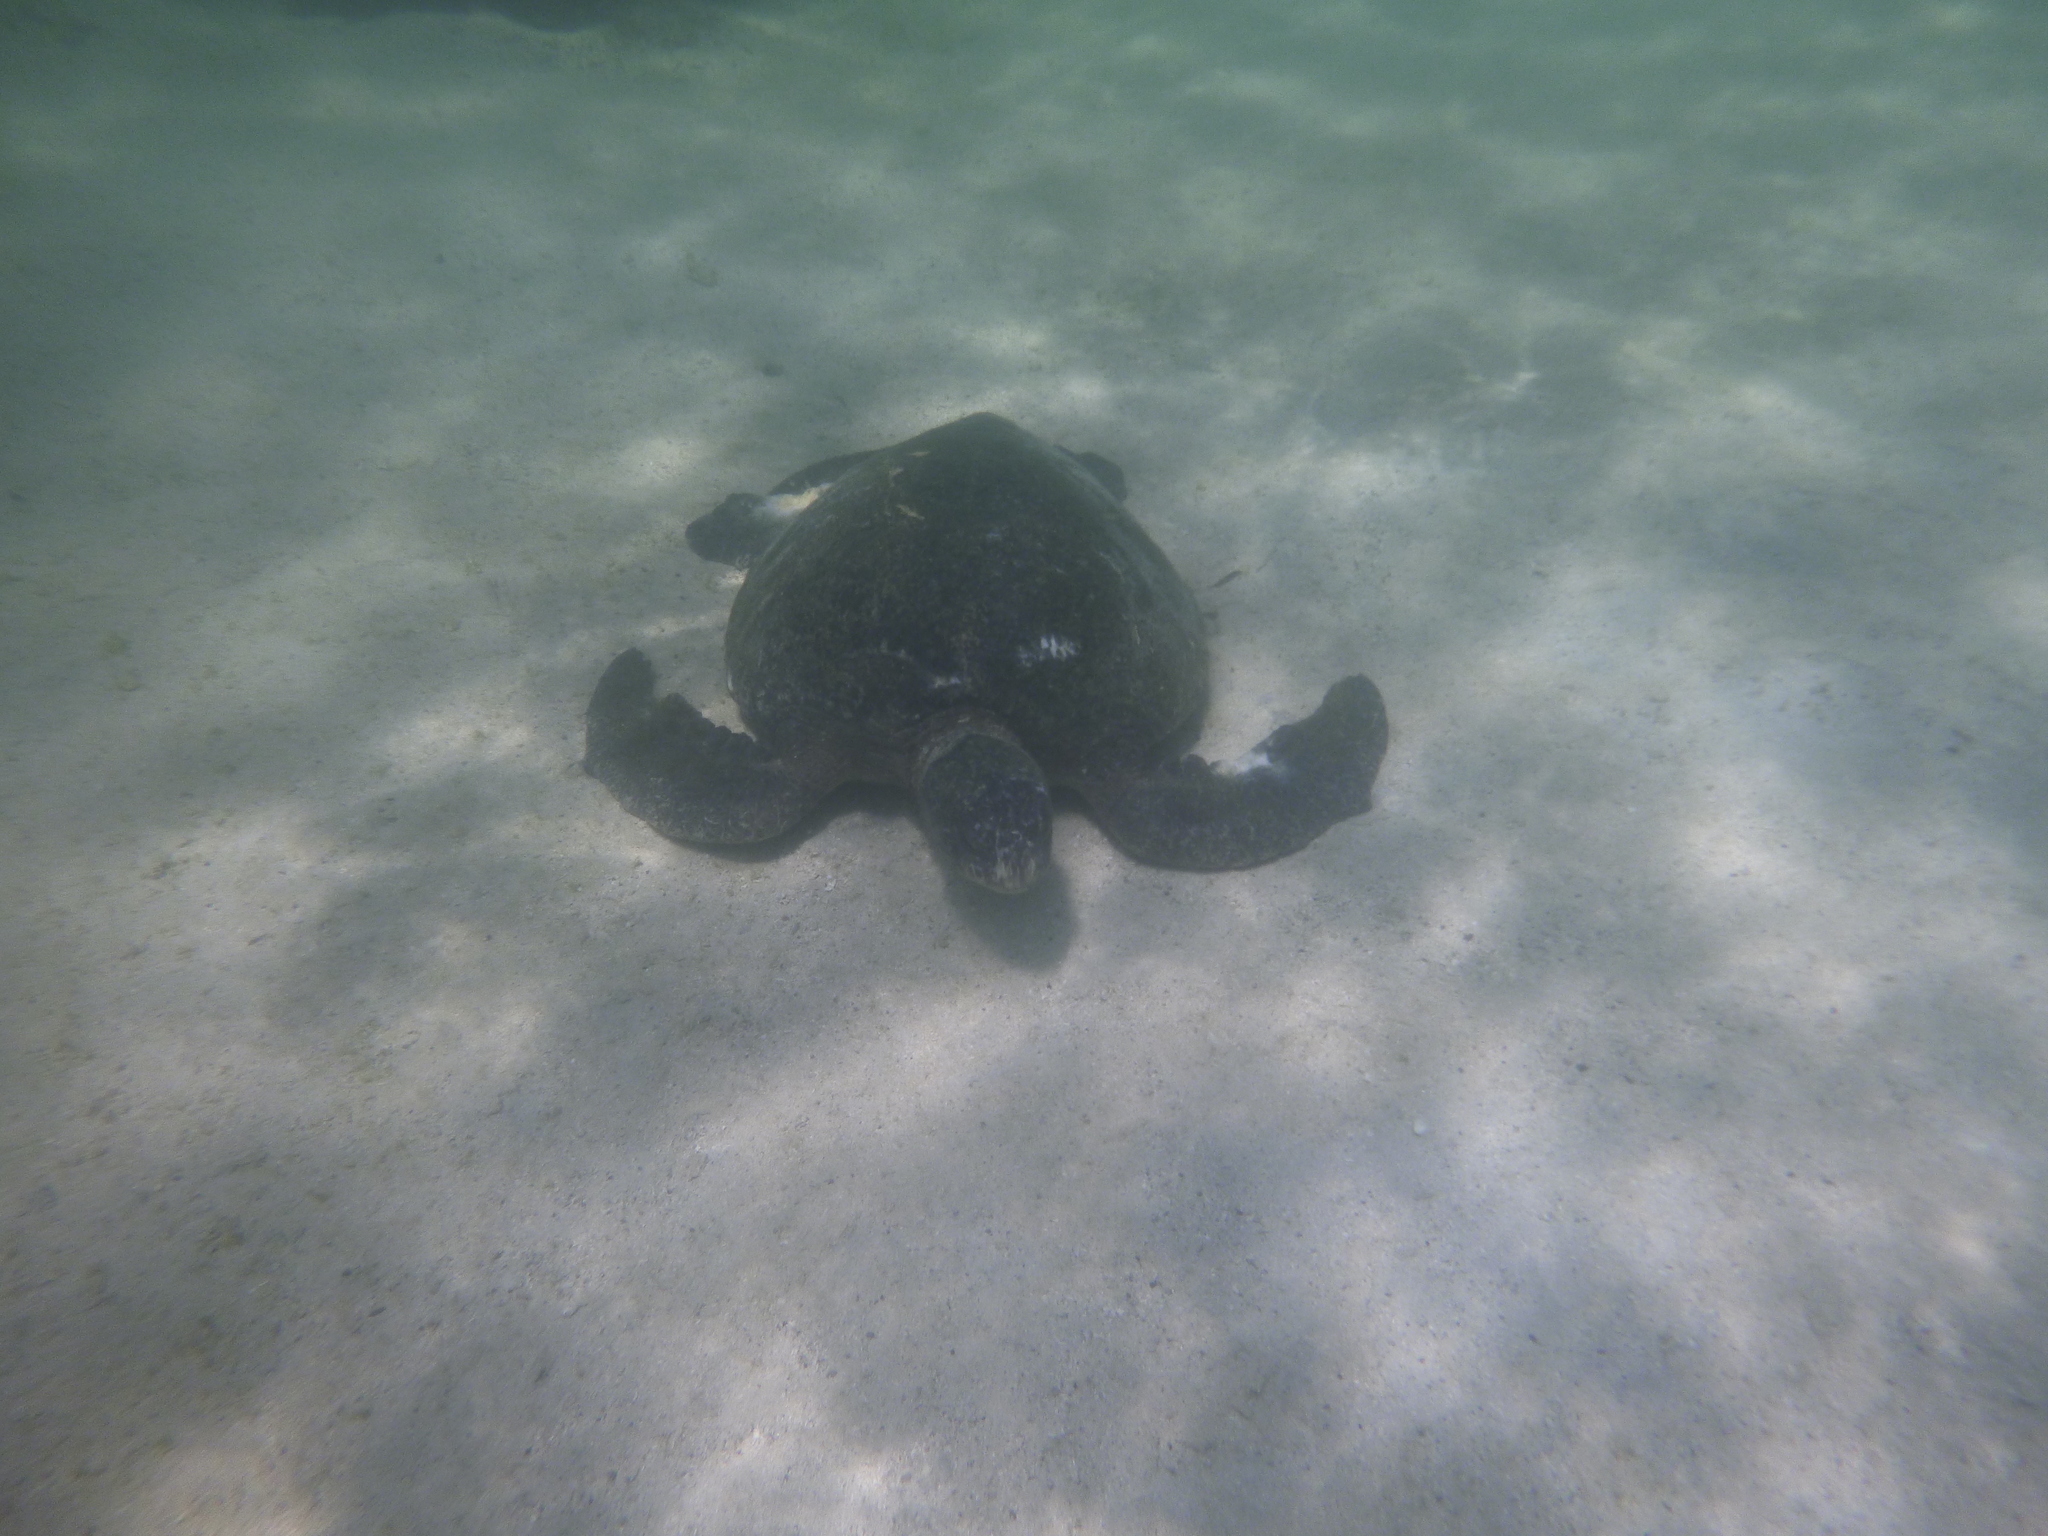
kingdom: Animalia
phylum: Chordata
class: Testudines
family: Cheloniidae
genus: Chelonia
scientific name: Chelonia mydas
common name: Green turtle
